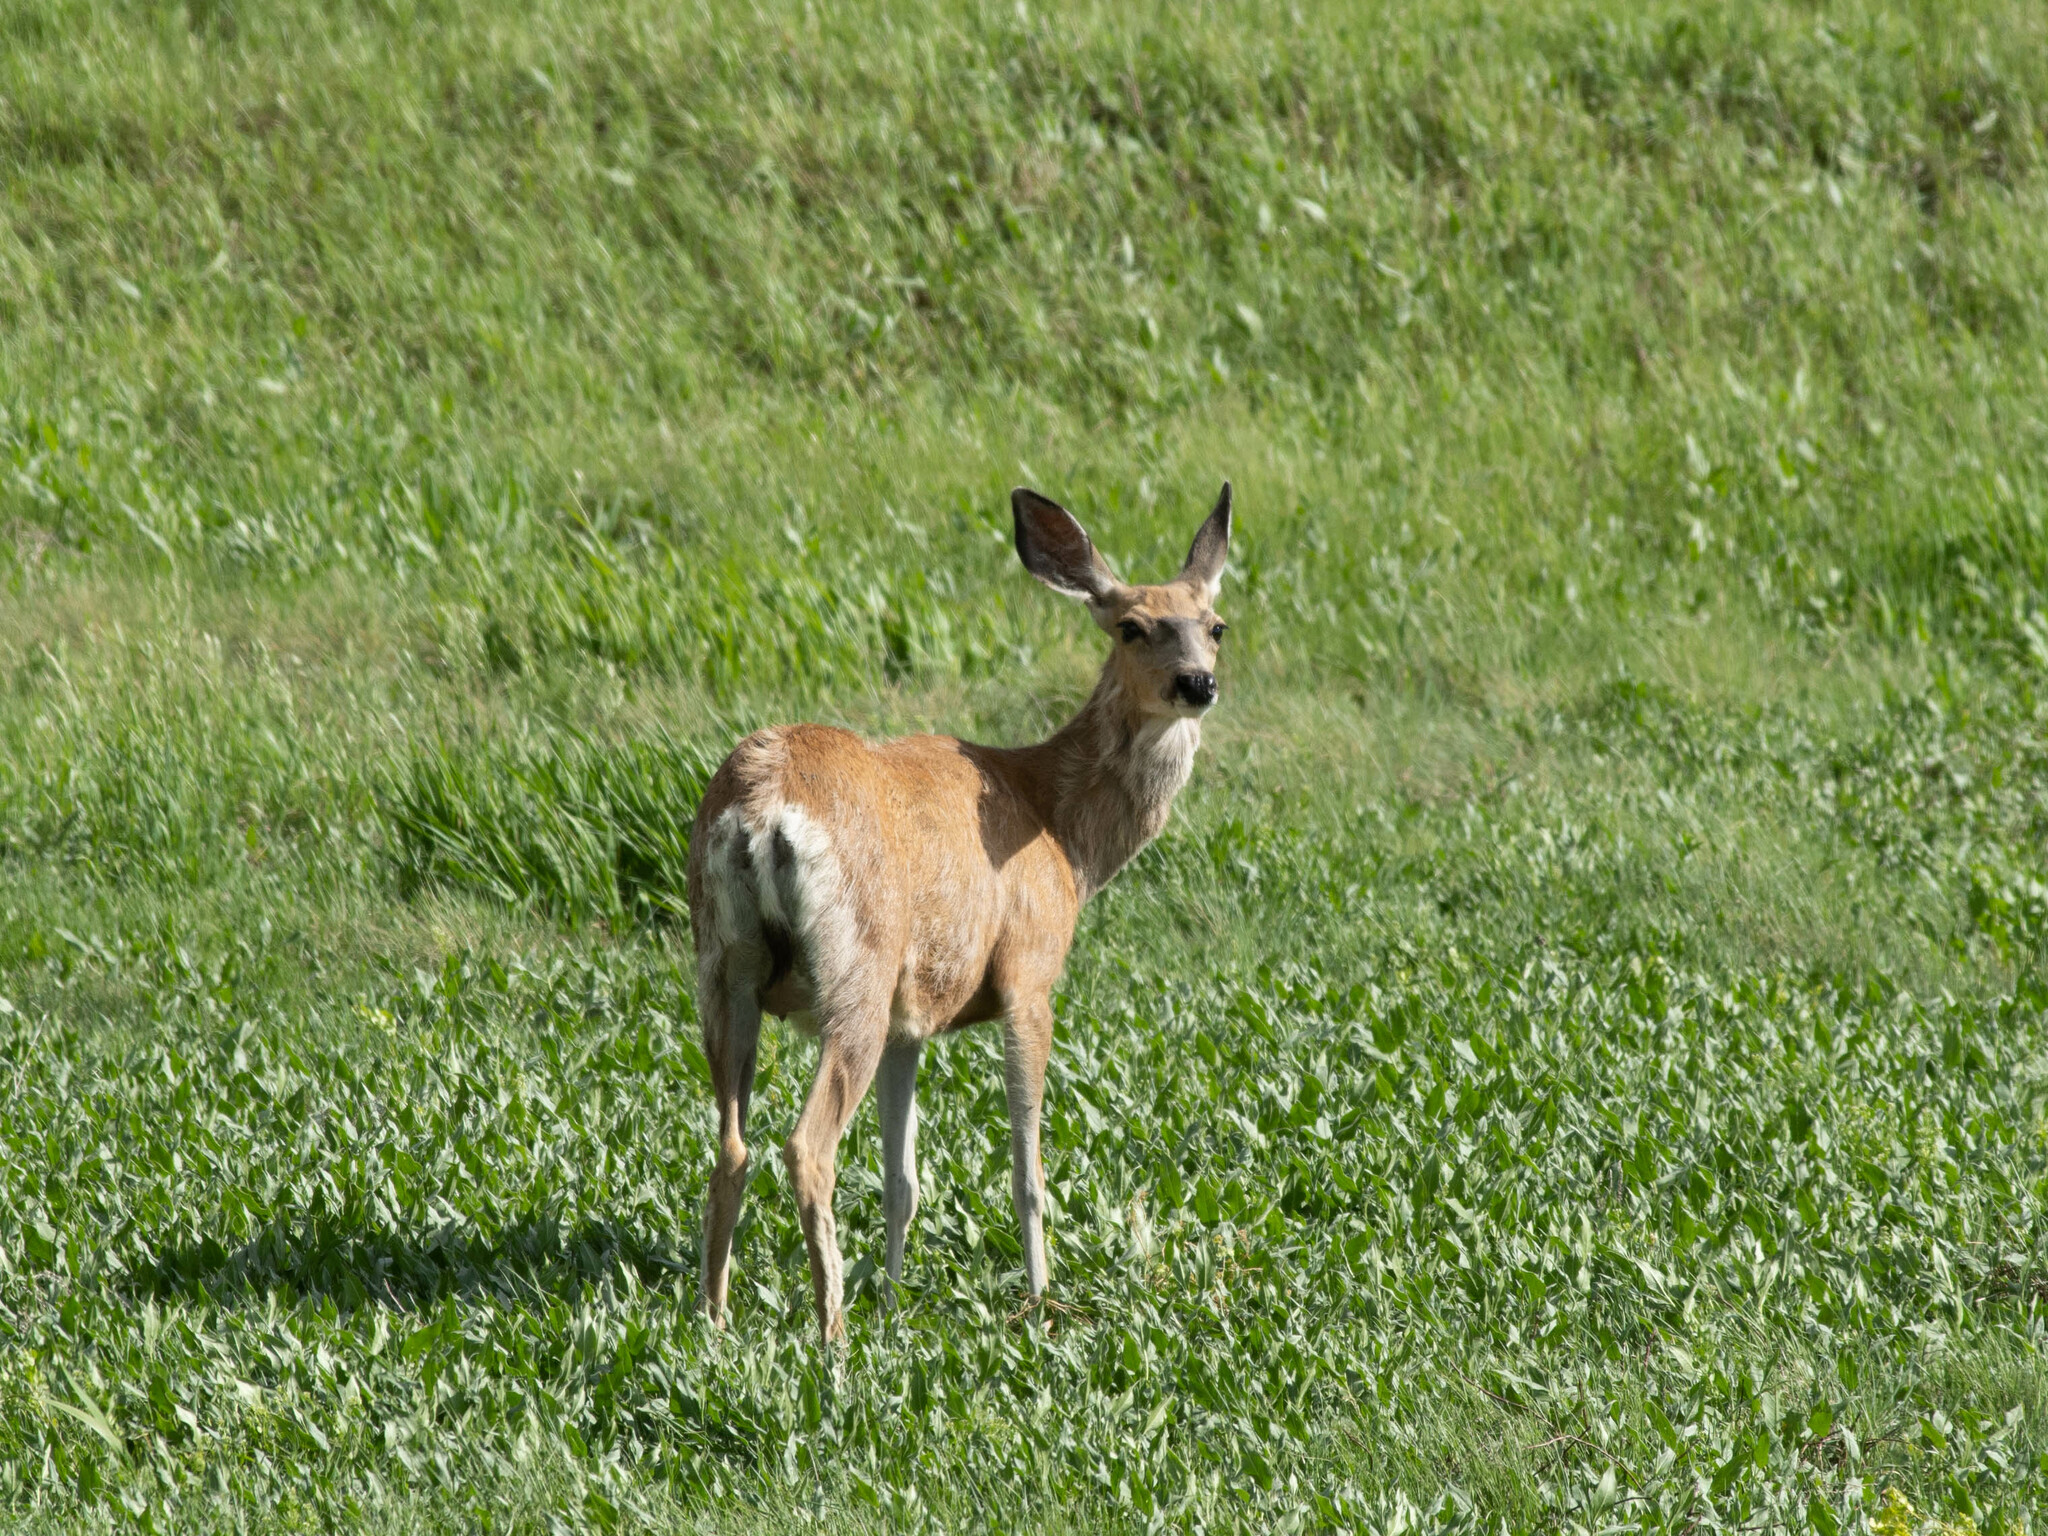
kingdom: Animalia
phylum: Chordata
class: Mammalia
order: Artiodactyla
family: Cervidae
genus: Odocoileus
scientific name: Odocoileus hemionus
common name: Mule deer
